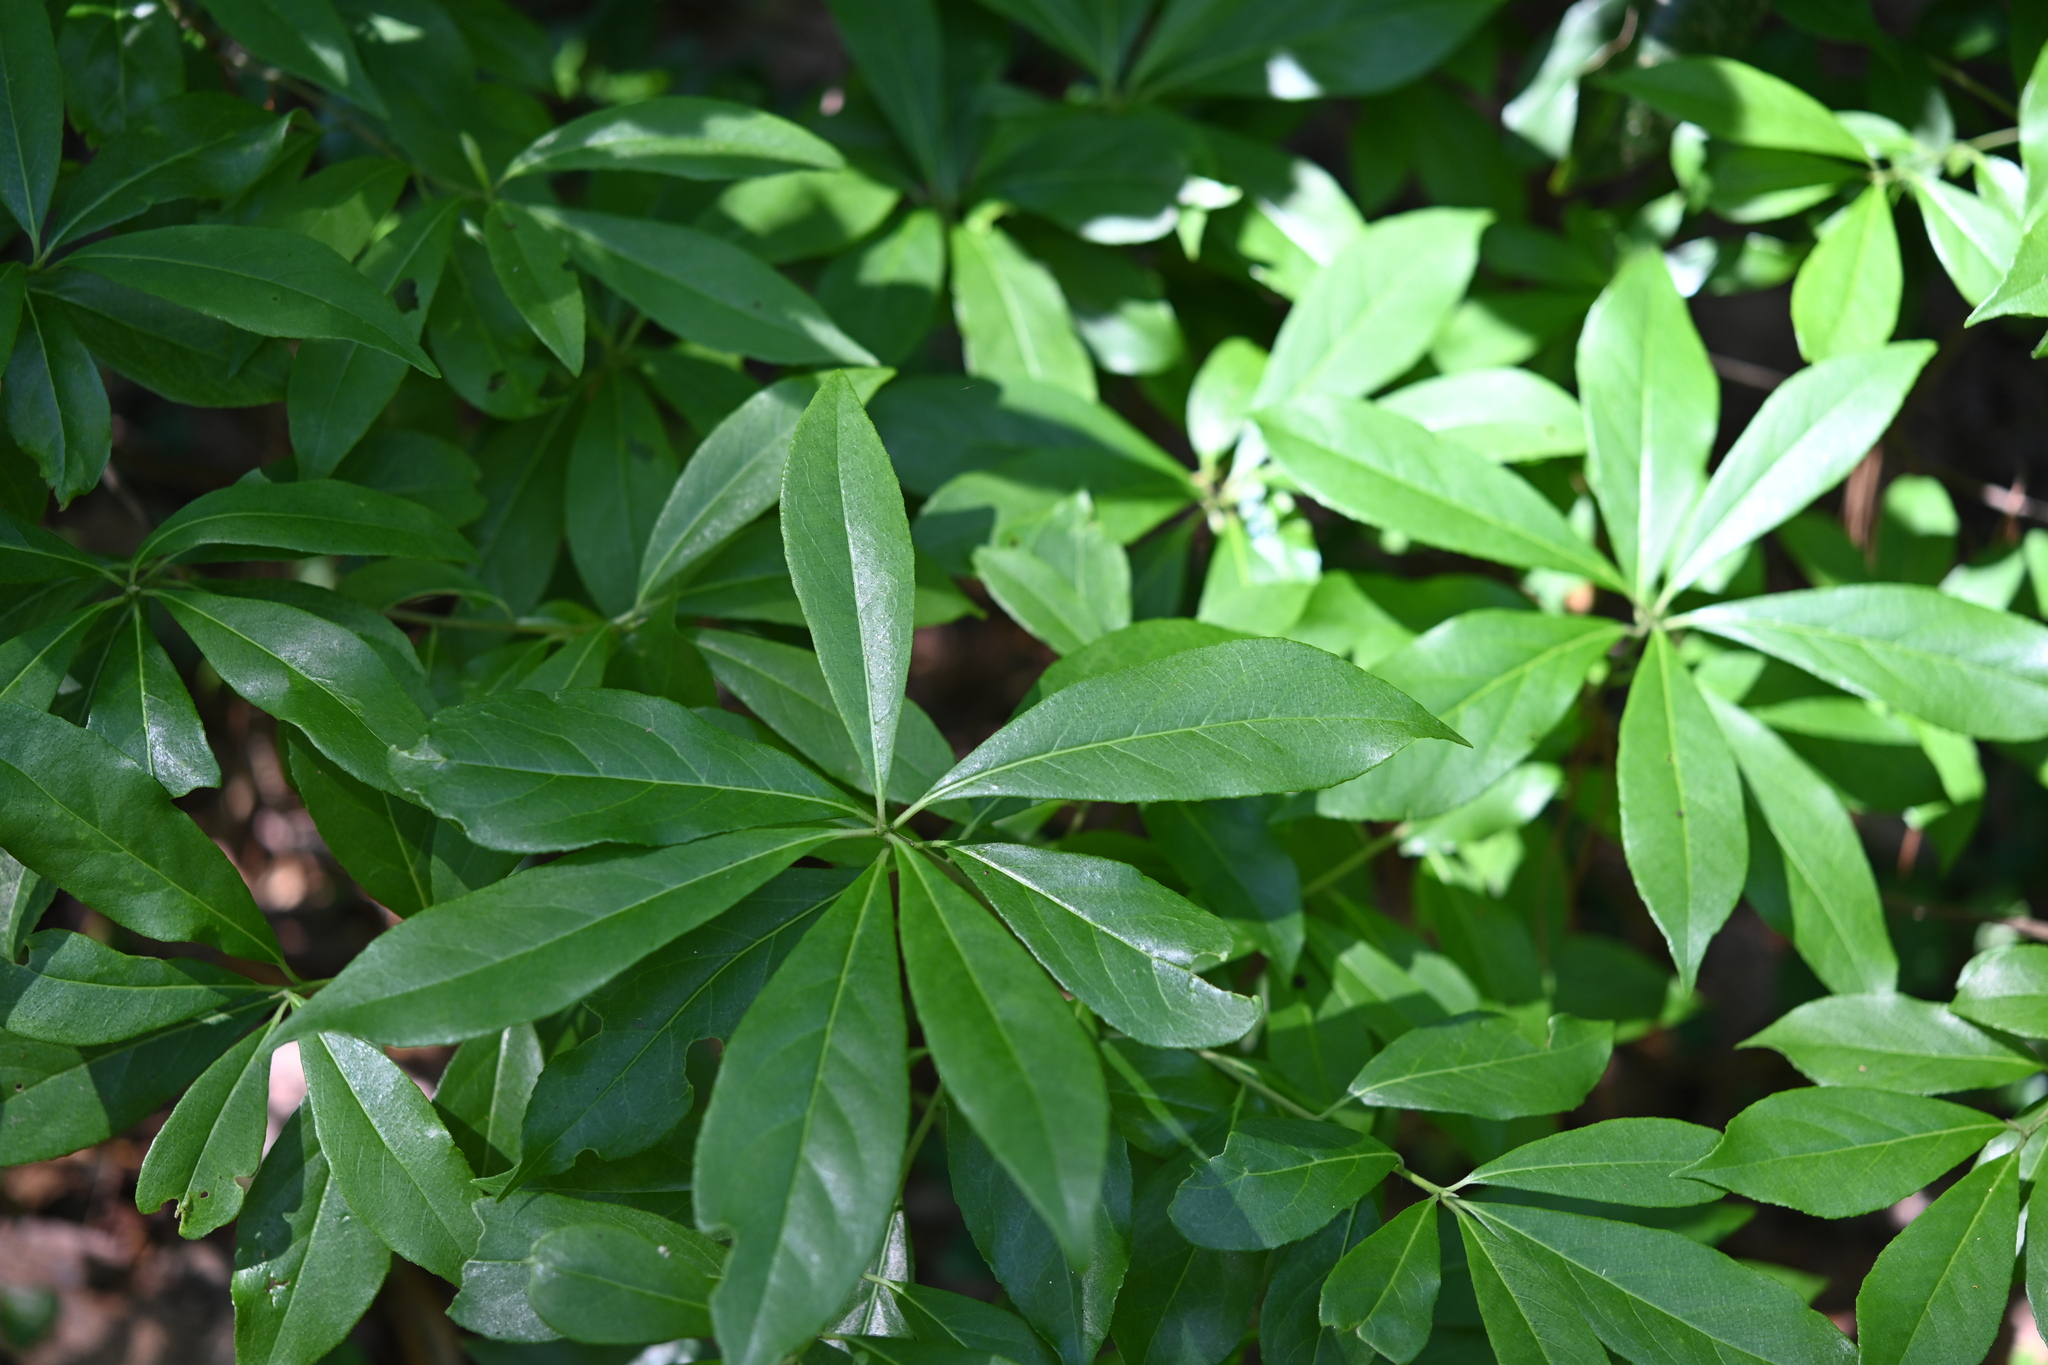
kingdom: Plantae
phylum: Tracheophyta
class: Magnoliopsida
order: Ericales
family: Symplocaceae
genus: Symplocos
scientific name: Symplocos tinctoria
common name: Horse-sugar
